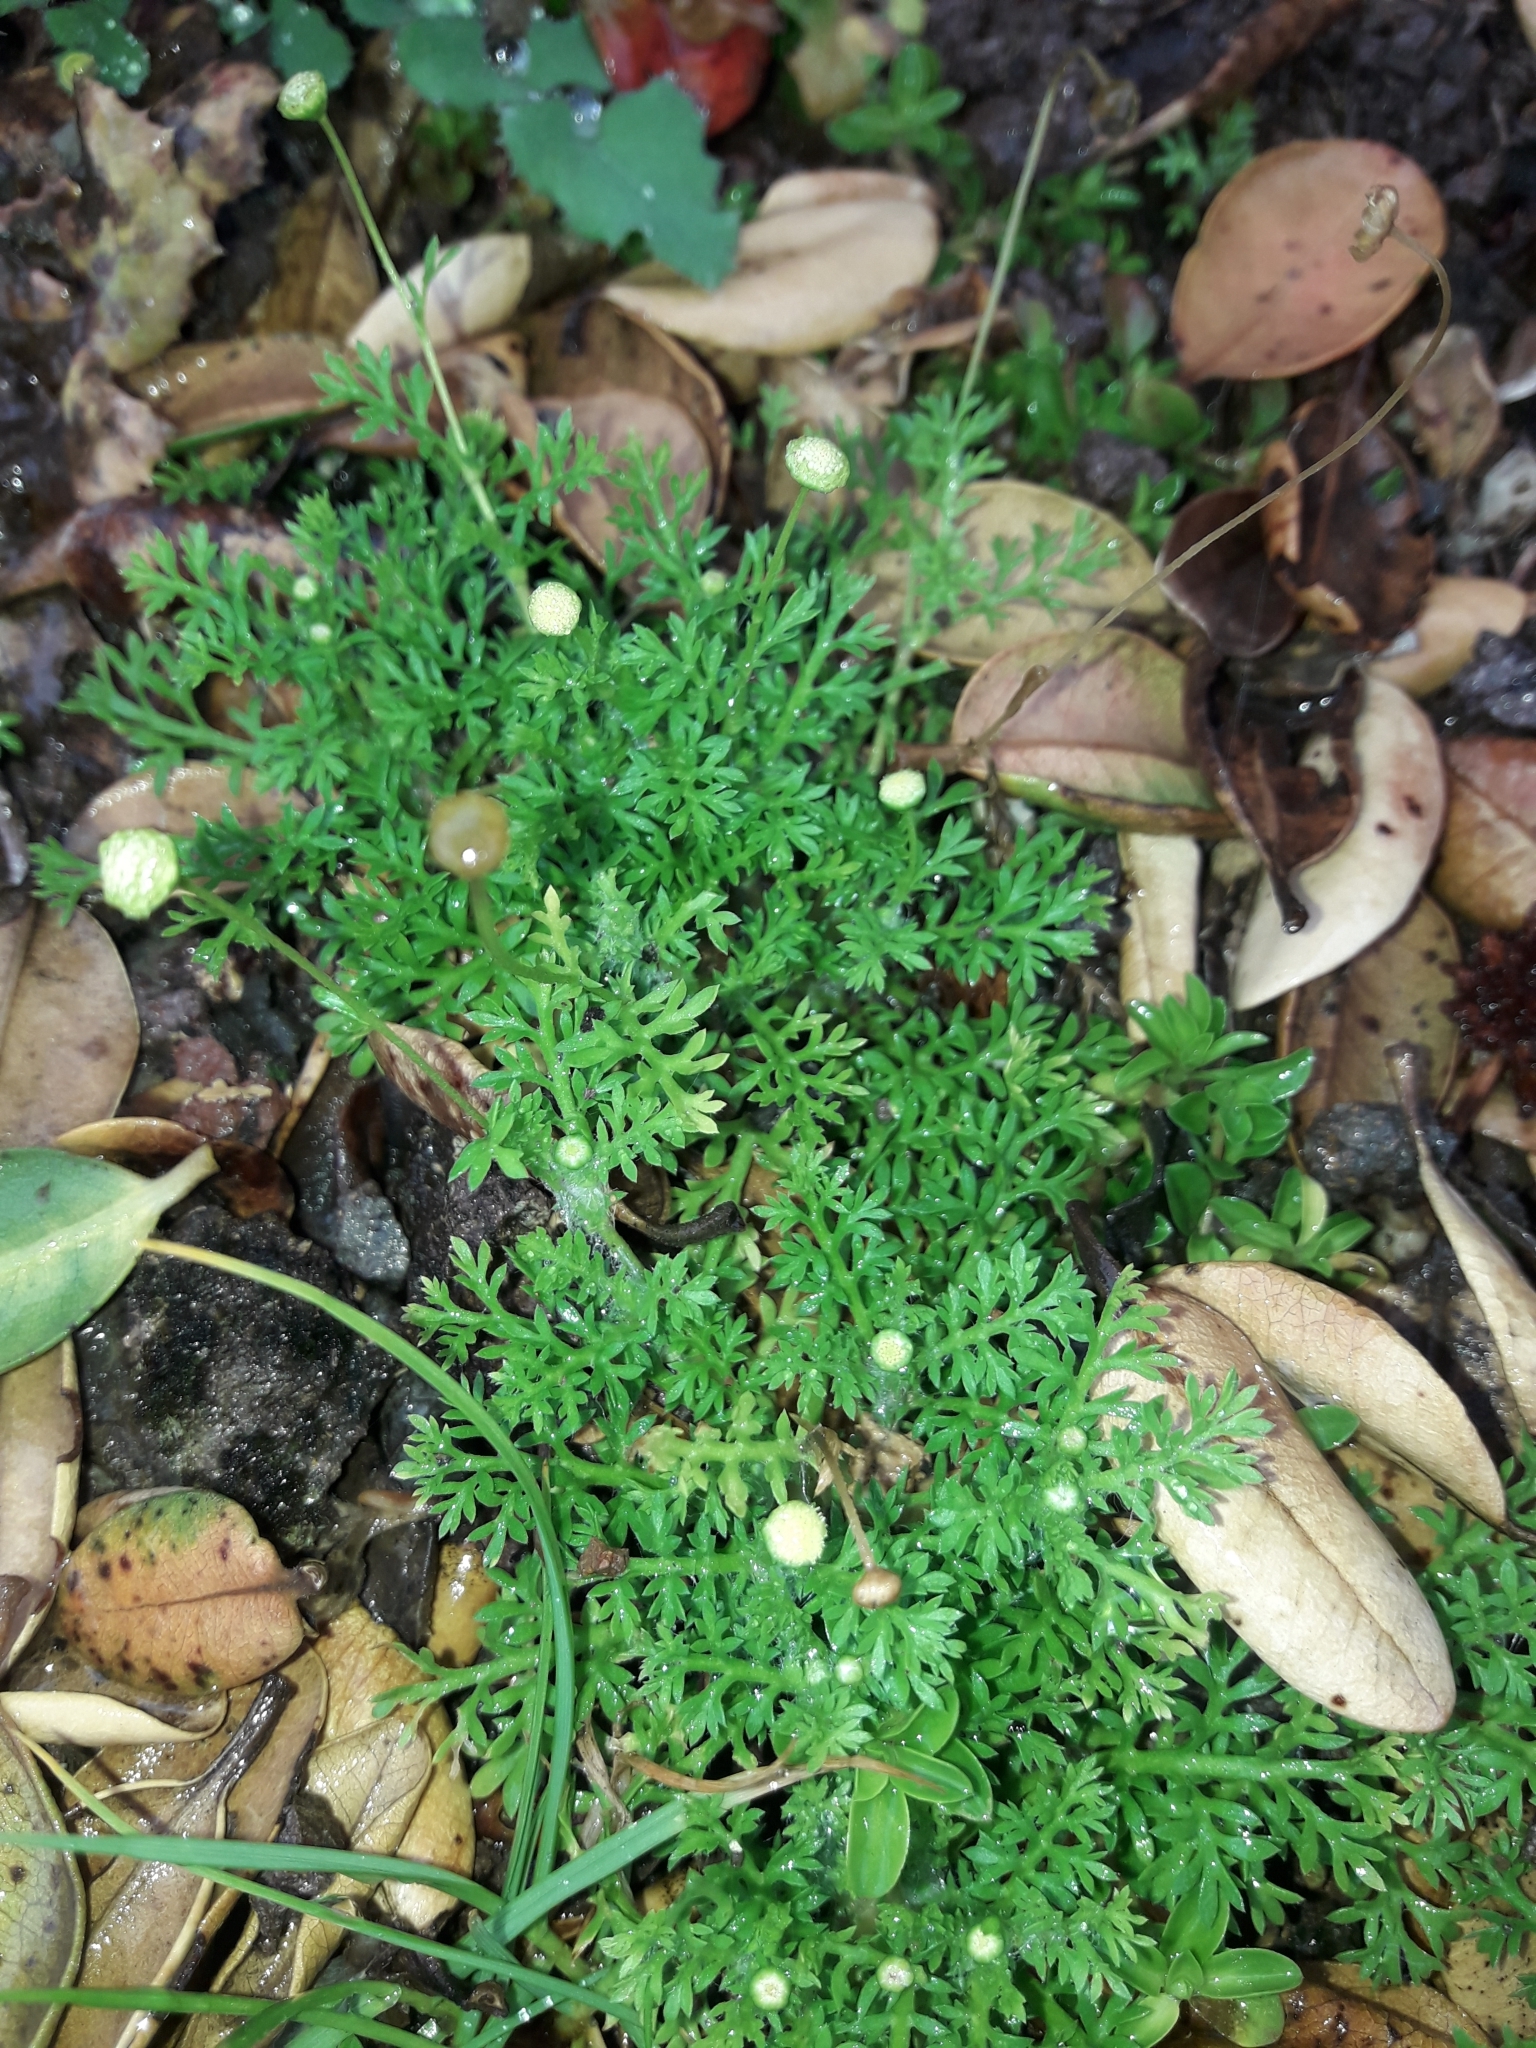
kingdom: Plantae
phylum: Tracheophyta
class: Magnoliopsida
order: Asterales
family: Asteraceae
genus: Cotula
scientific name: Cotula australis
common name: Australian waterbuttons
